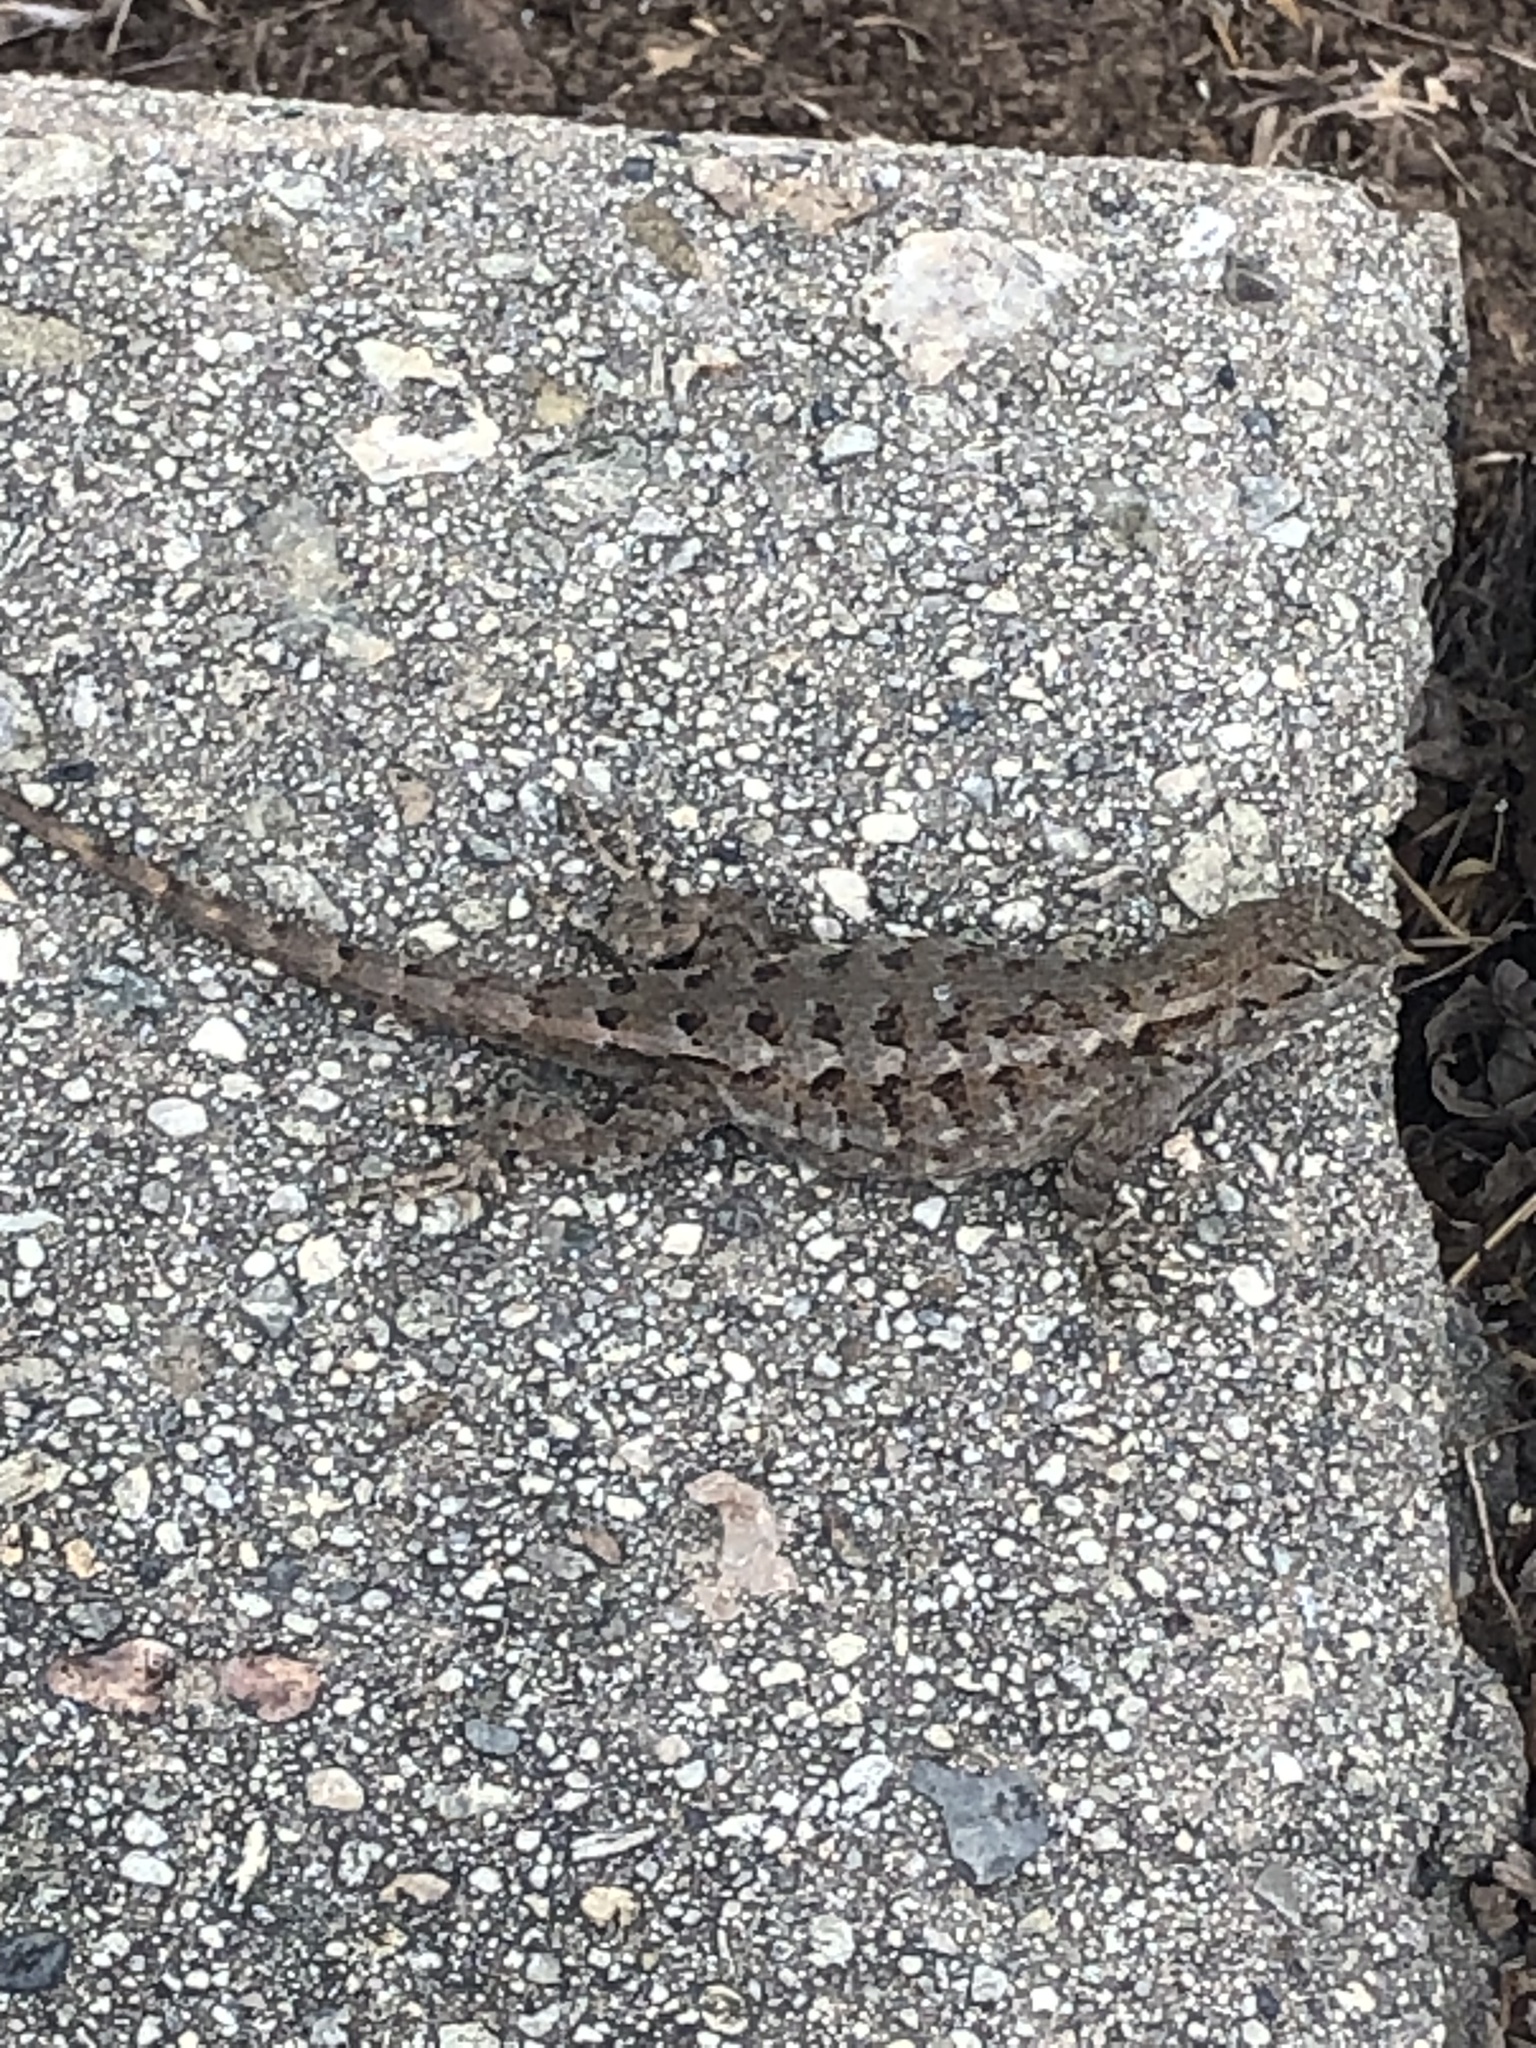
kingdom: Animalia
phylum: Chordata
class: Squamata
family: Phrynosomatidae
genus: Sceloporus
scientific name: Sceloporus occidentalis
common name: Western fence lizard
